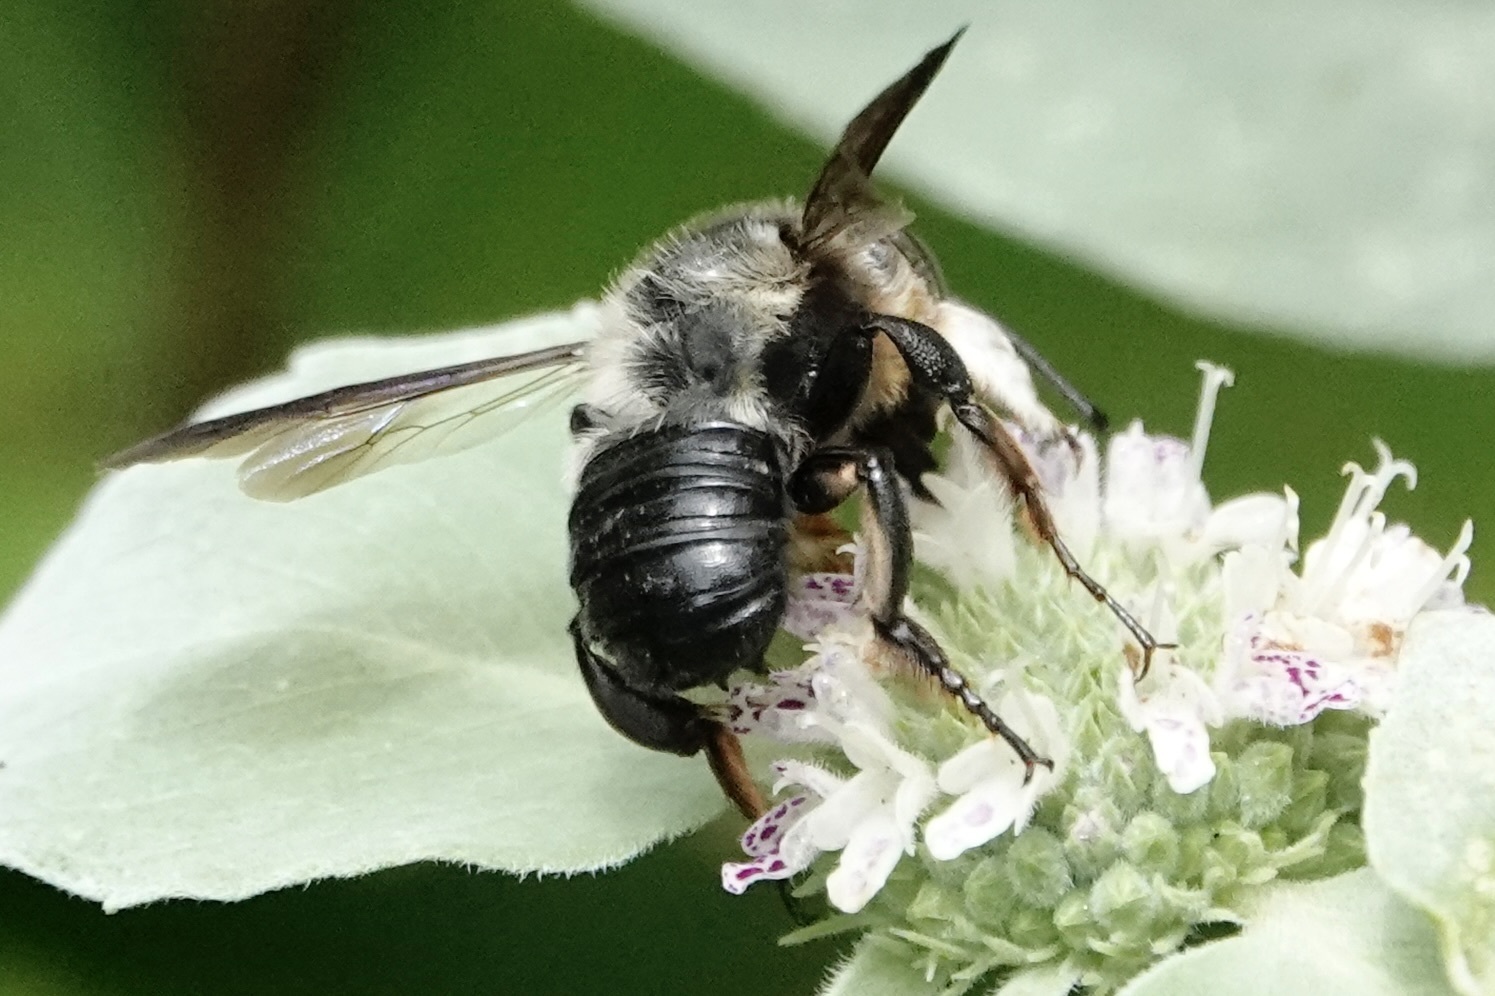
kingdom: Animalia
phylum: Arthropoda
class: Insecta
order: Hymenoptera
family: Megachilidae
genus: Megachile
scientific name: Megachile xylocopoides
